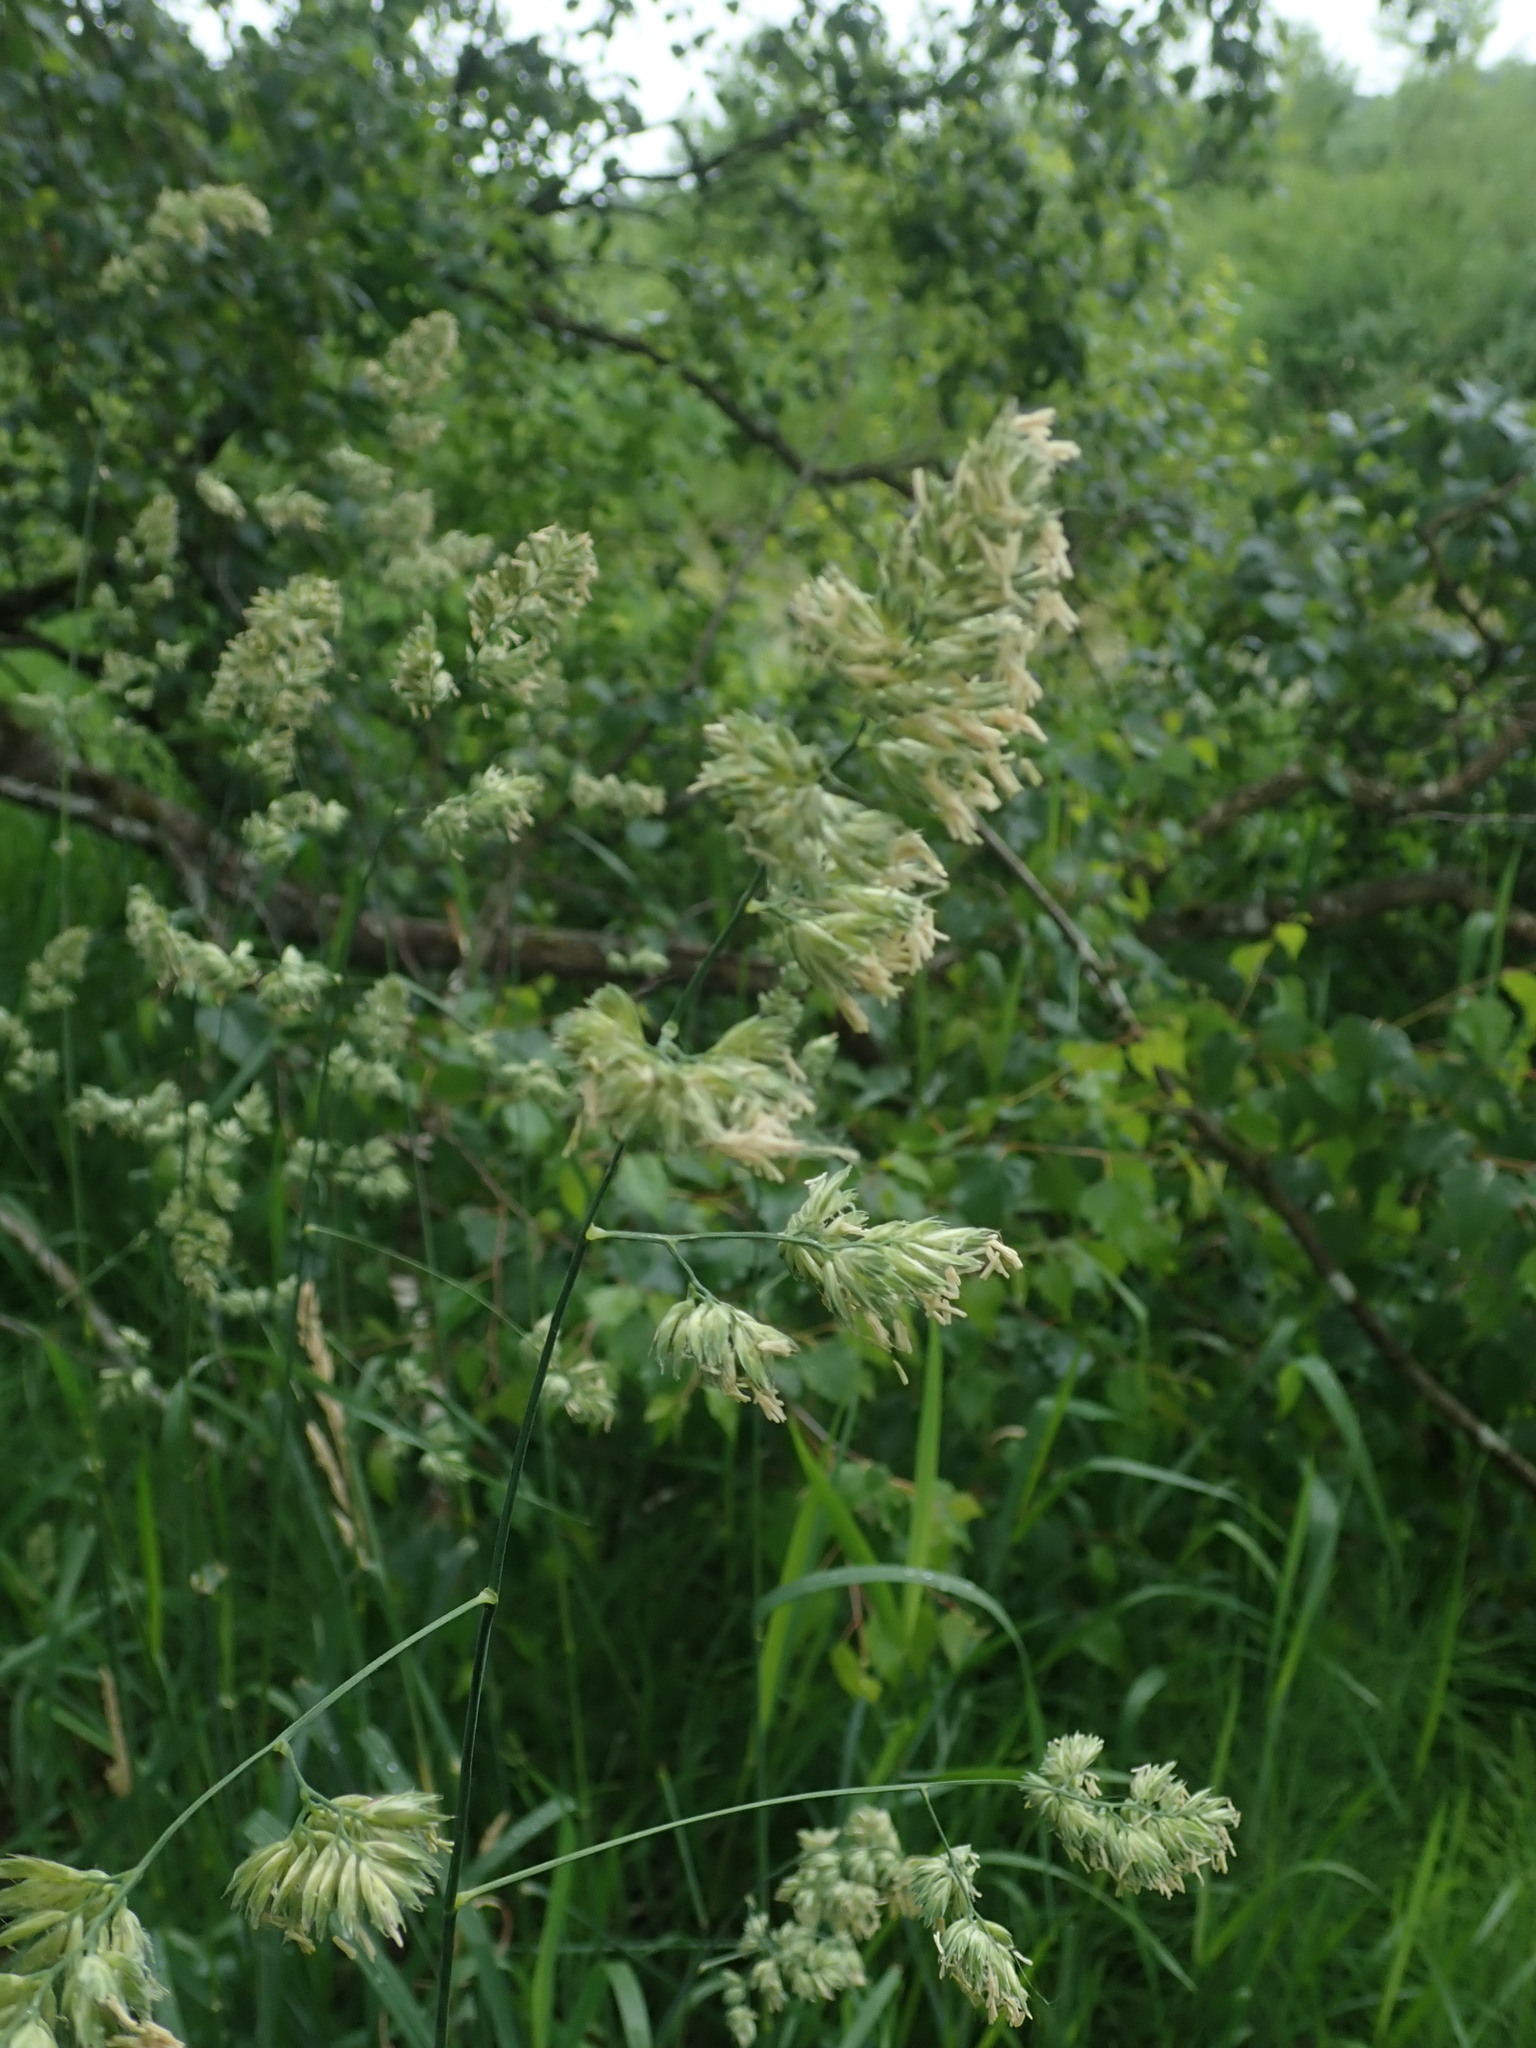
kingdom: Plantae
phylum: Tracheophyta
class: Liliopsida
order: Poales
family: Poaceae
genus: Dactylis
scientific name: Dactylis glomerata
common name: Orchardgrass
